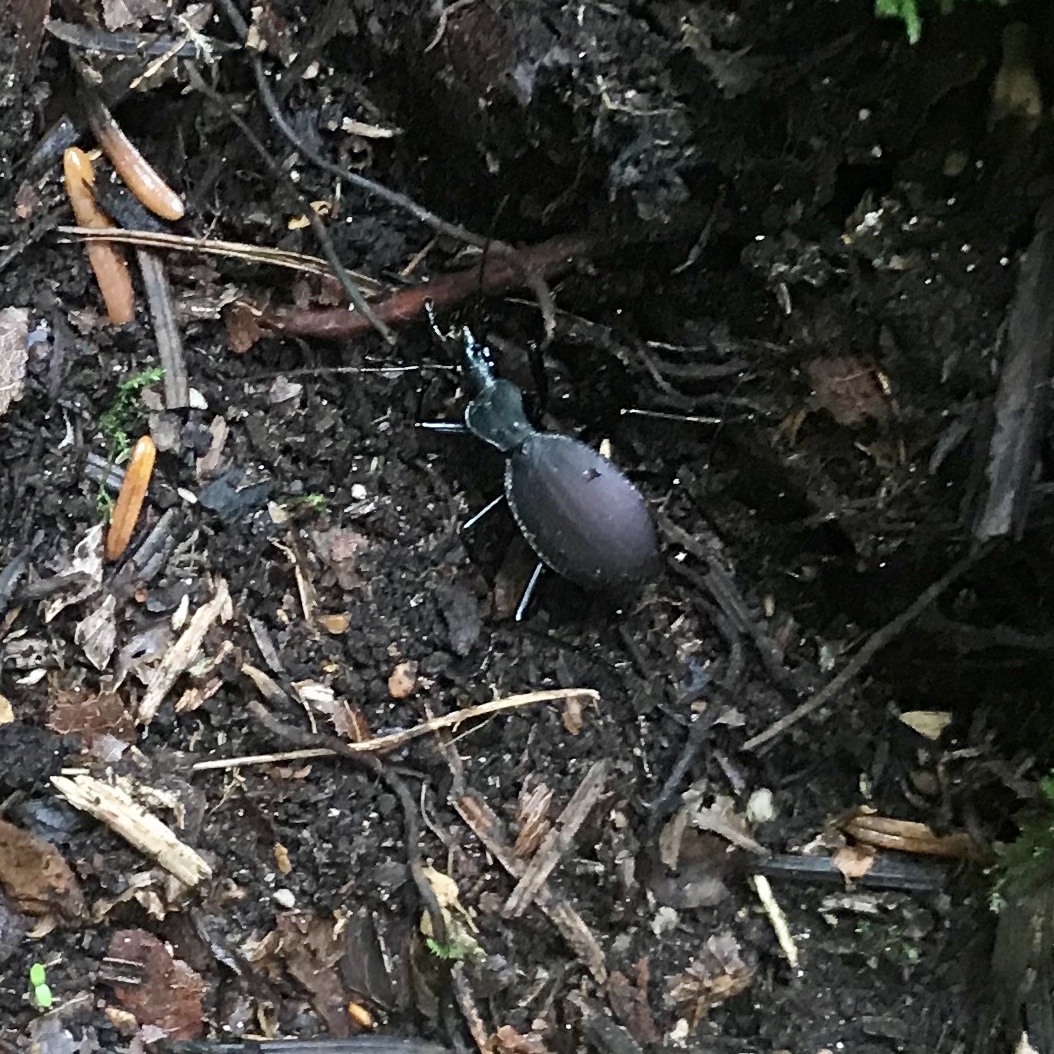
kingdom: Animalia
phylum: Arthropoda
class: Insecta
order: Coleoptera
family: Carabidae
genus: Scaphinotus
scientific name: Scaphinotus angusticollis
